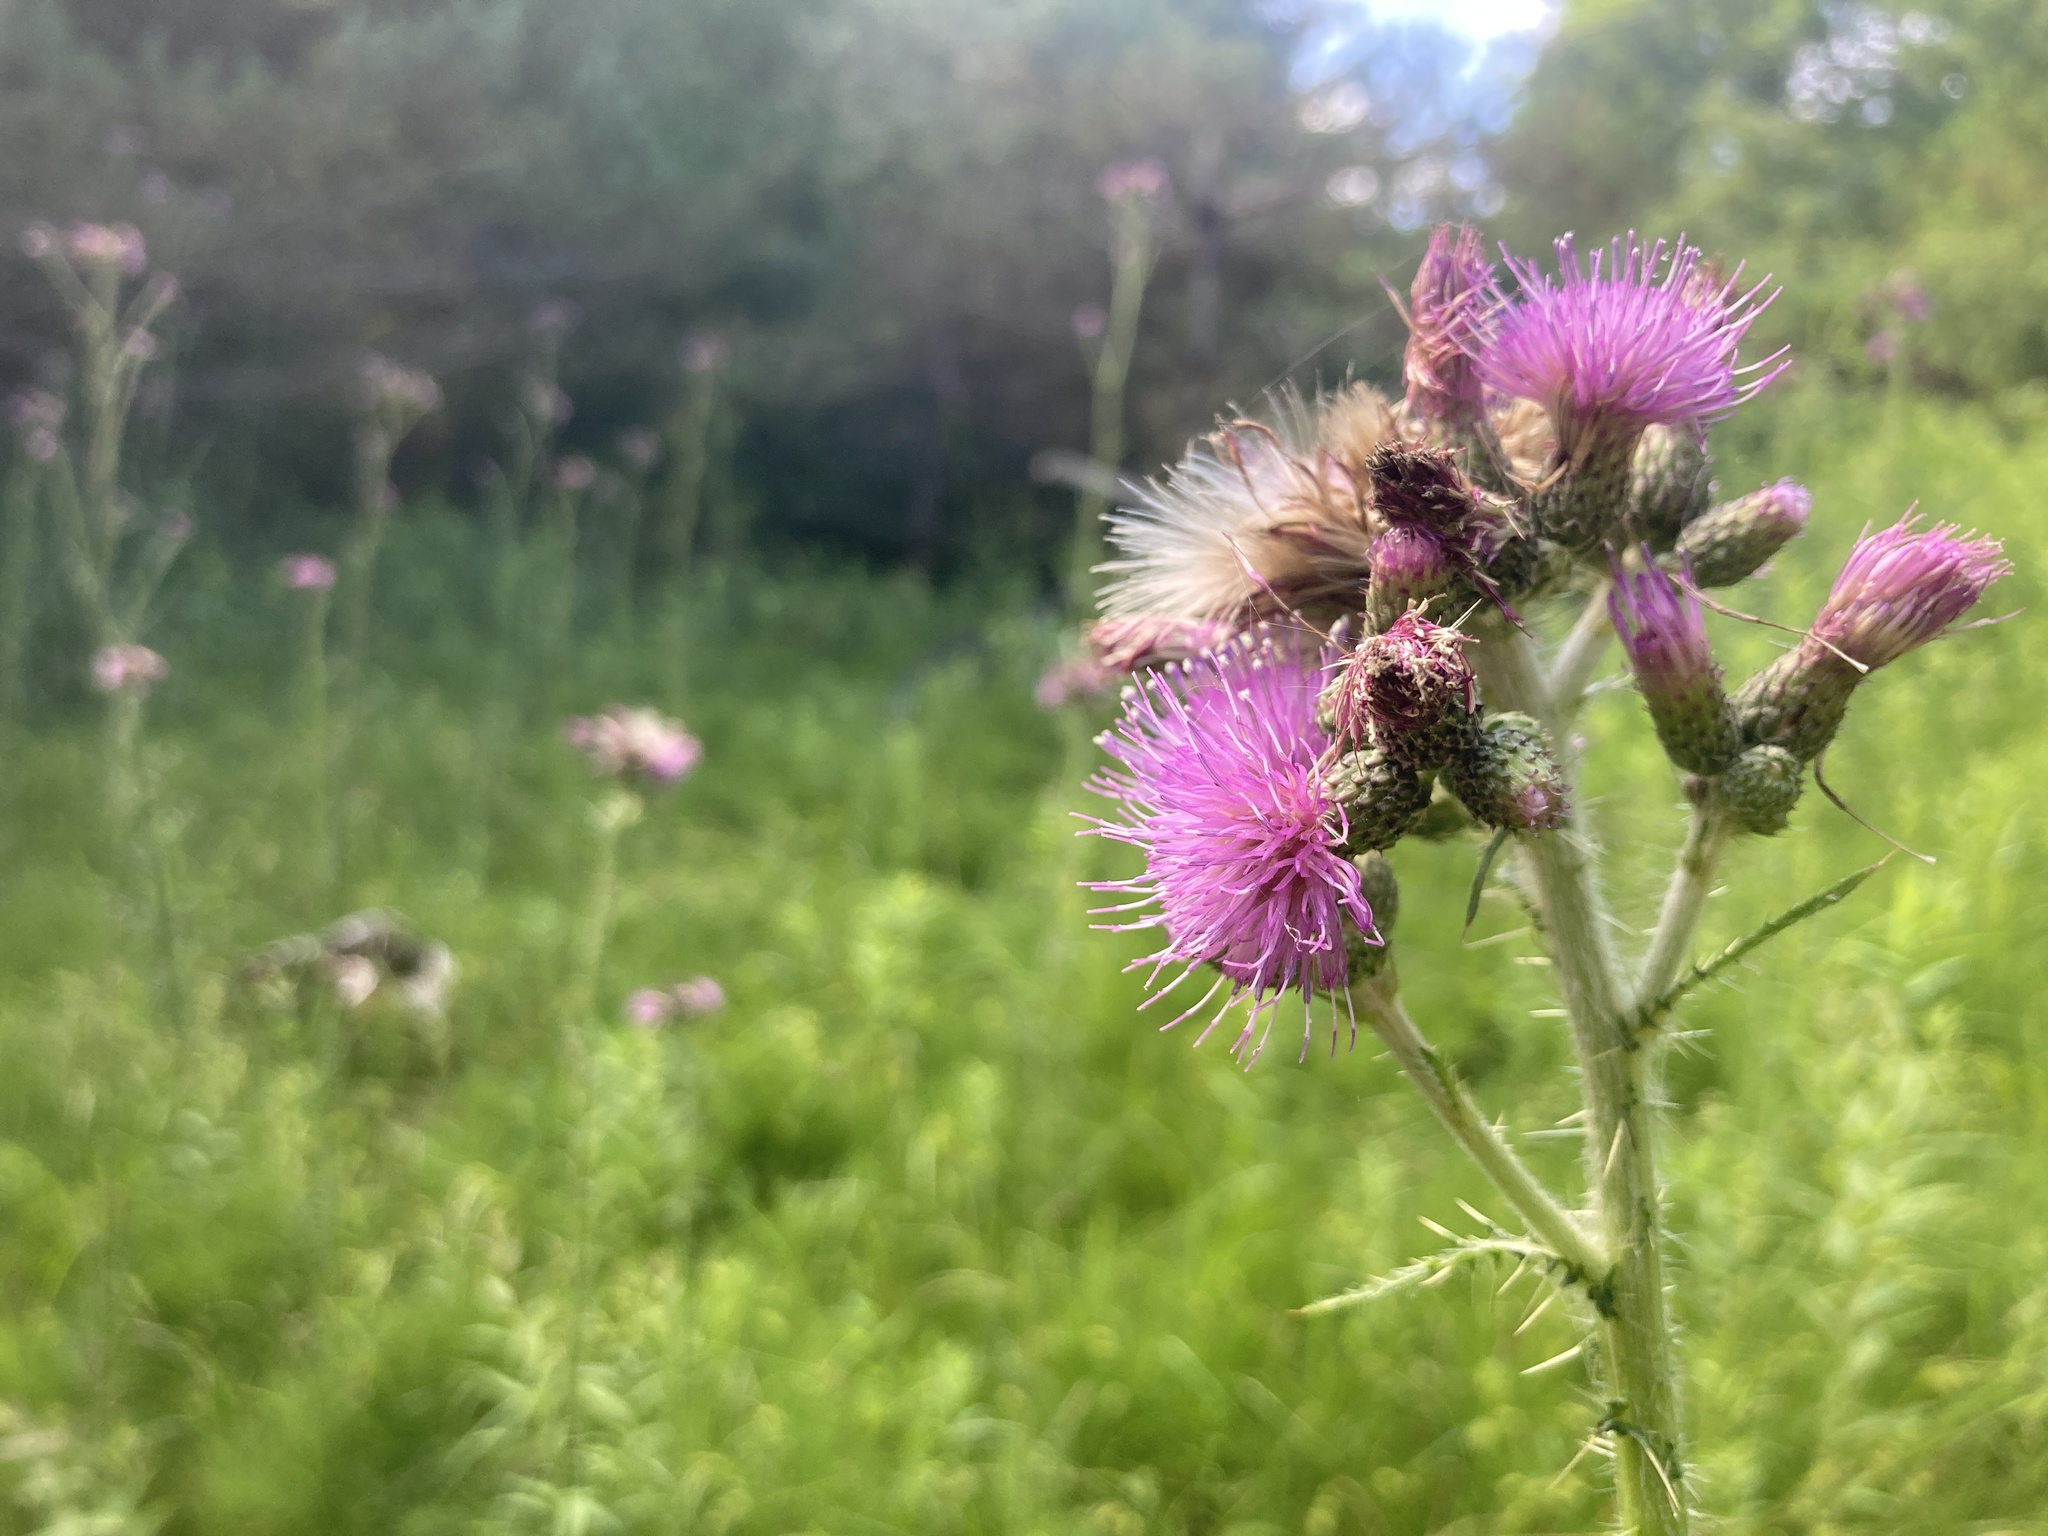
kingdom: Plantae
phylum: Tracheophyta
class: Magnoliopsida
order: Asterales
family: Asteraceae
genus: Cirsium
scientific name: Cirsium palustre
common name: Marsh thistle
